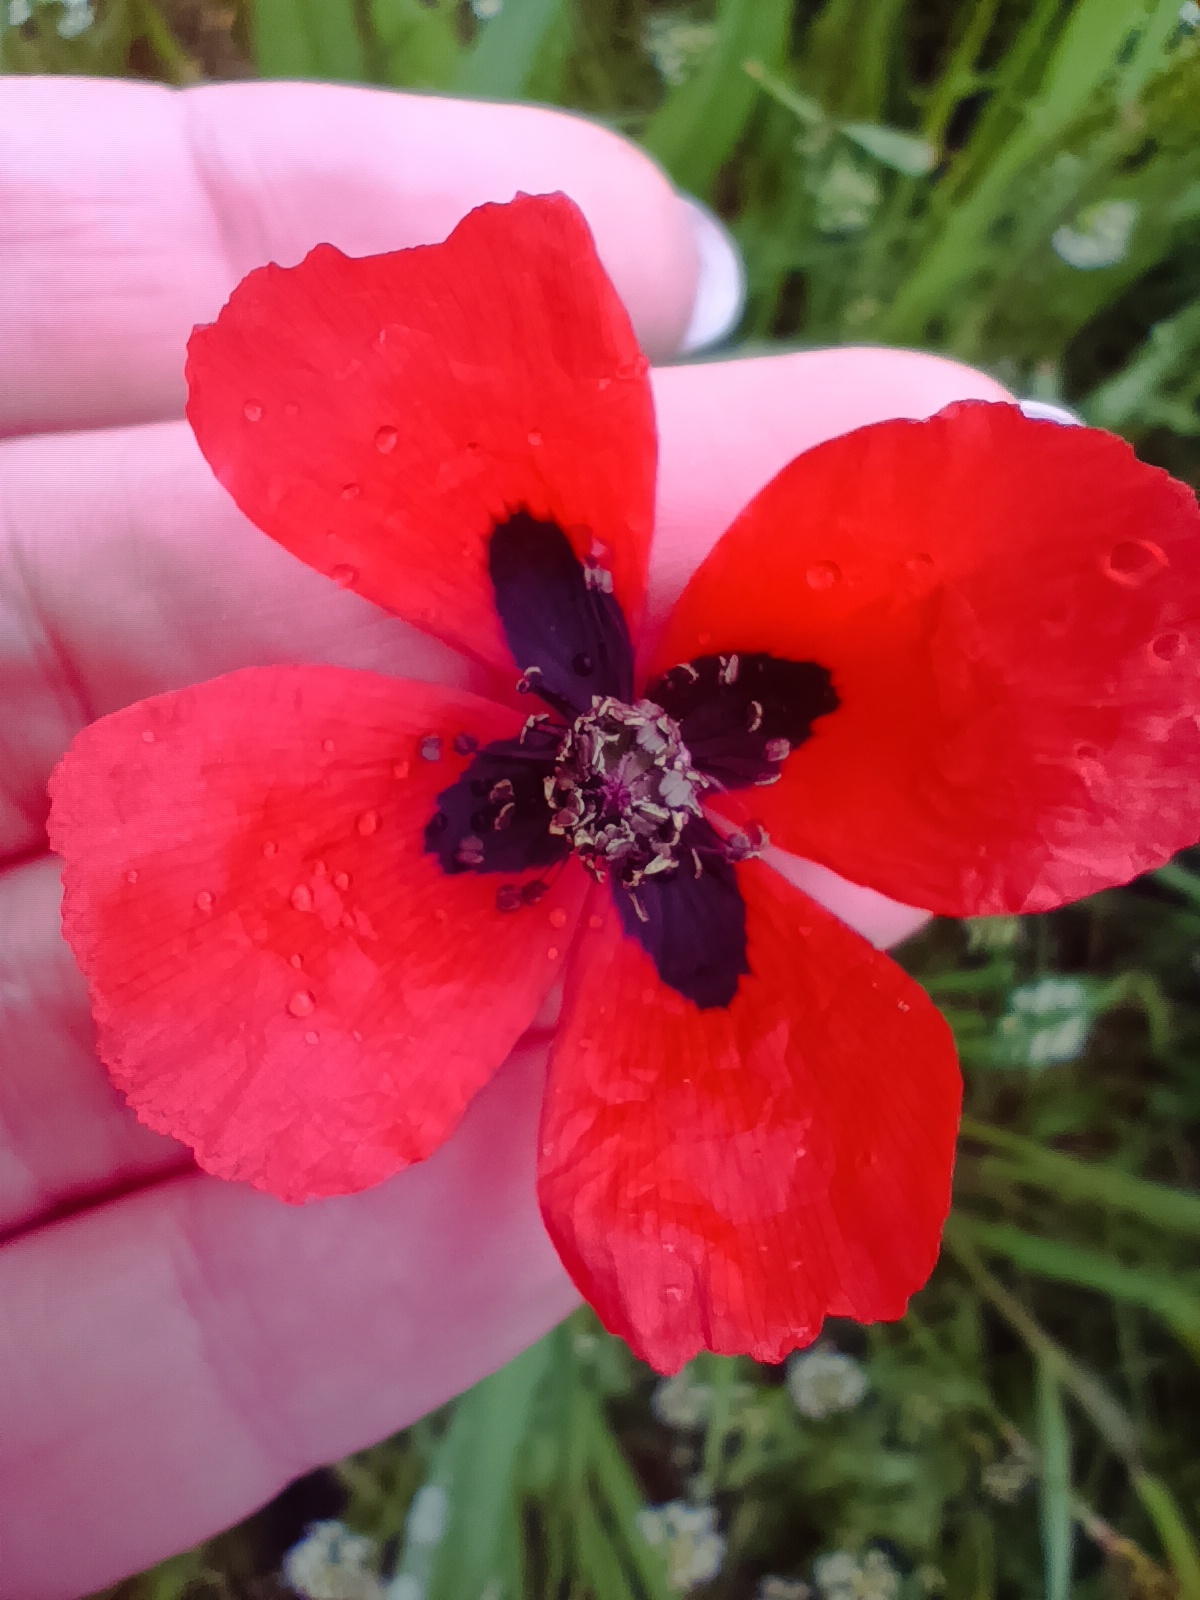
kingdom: Plantae
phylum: Tracheophyta
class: Magnoliopsida
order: Ranunculales
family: Papaveraceae
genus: Papaver
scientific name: Papaver dubium
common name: Long-headed poppy
